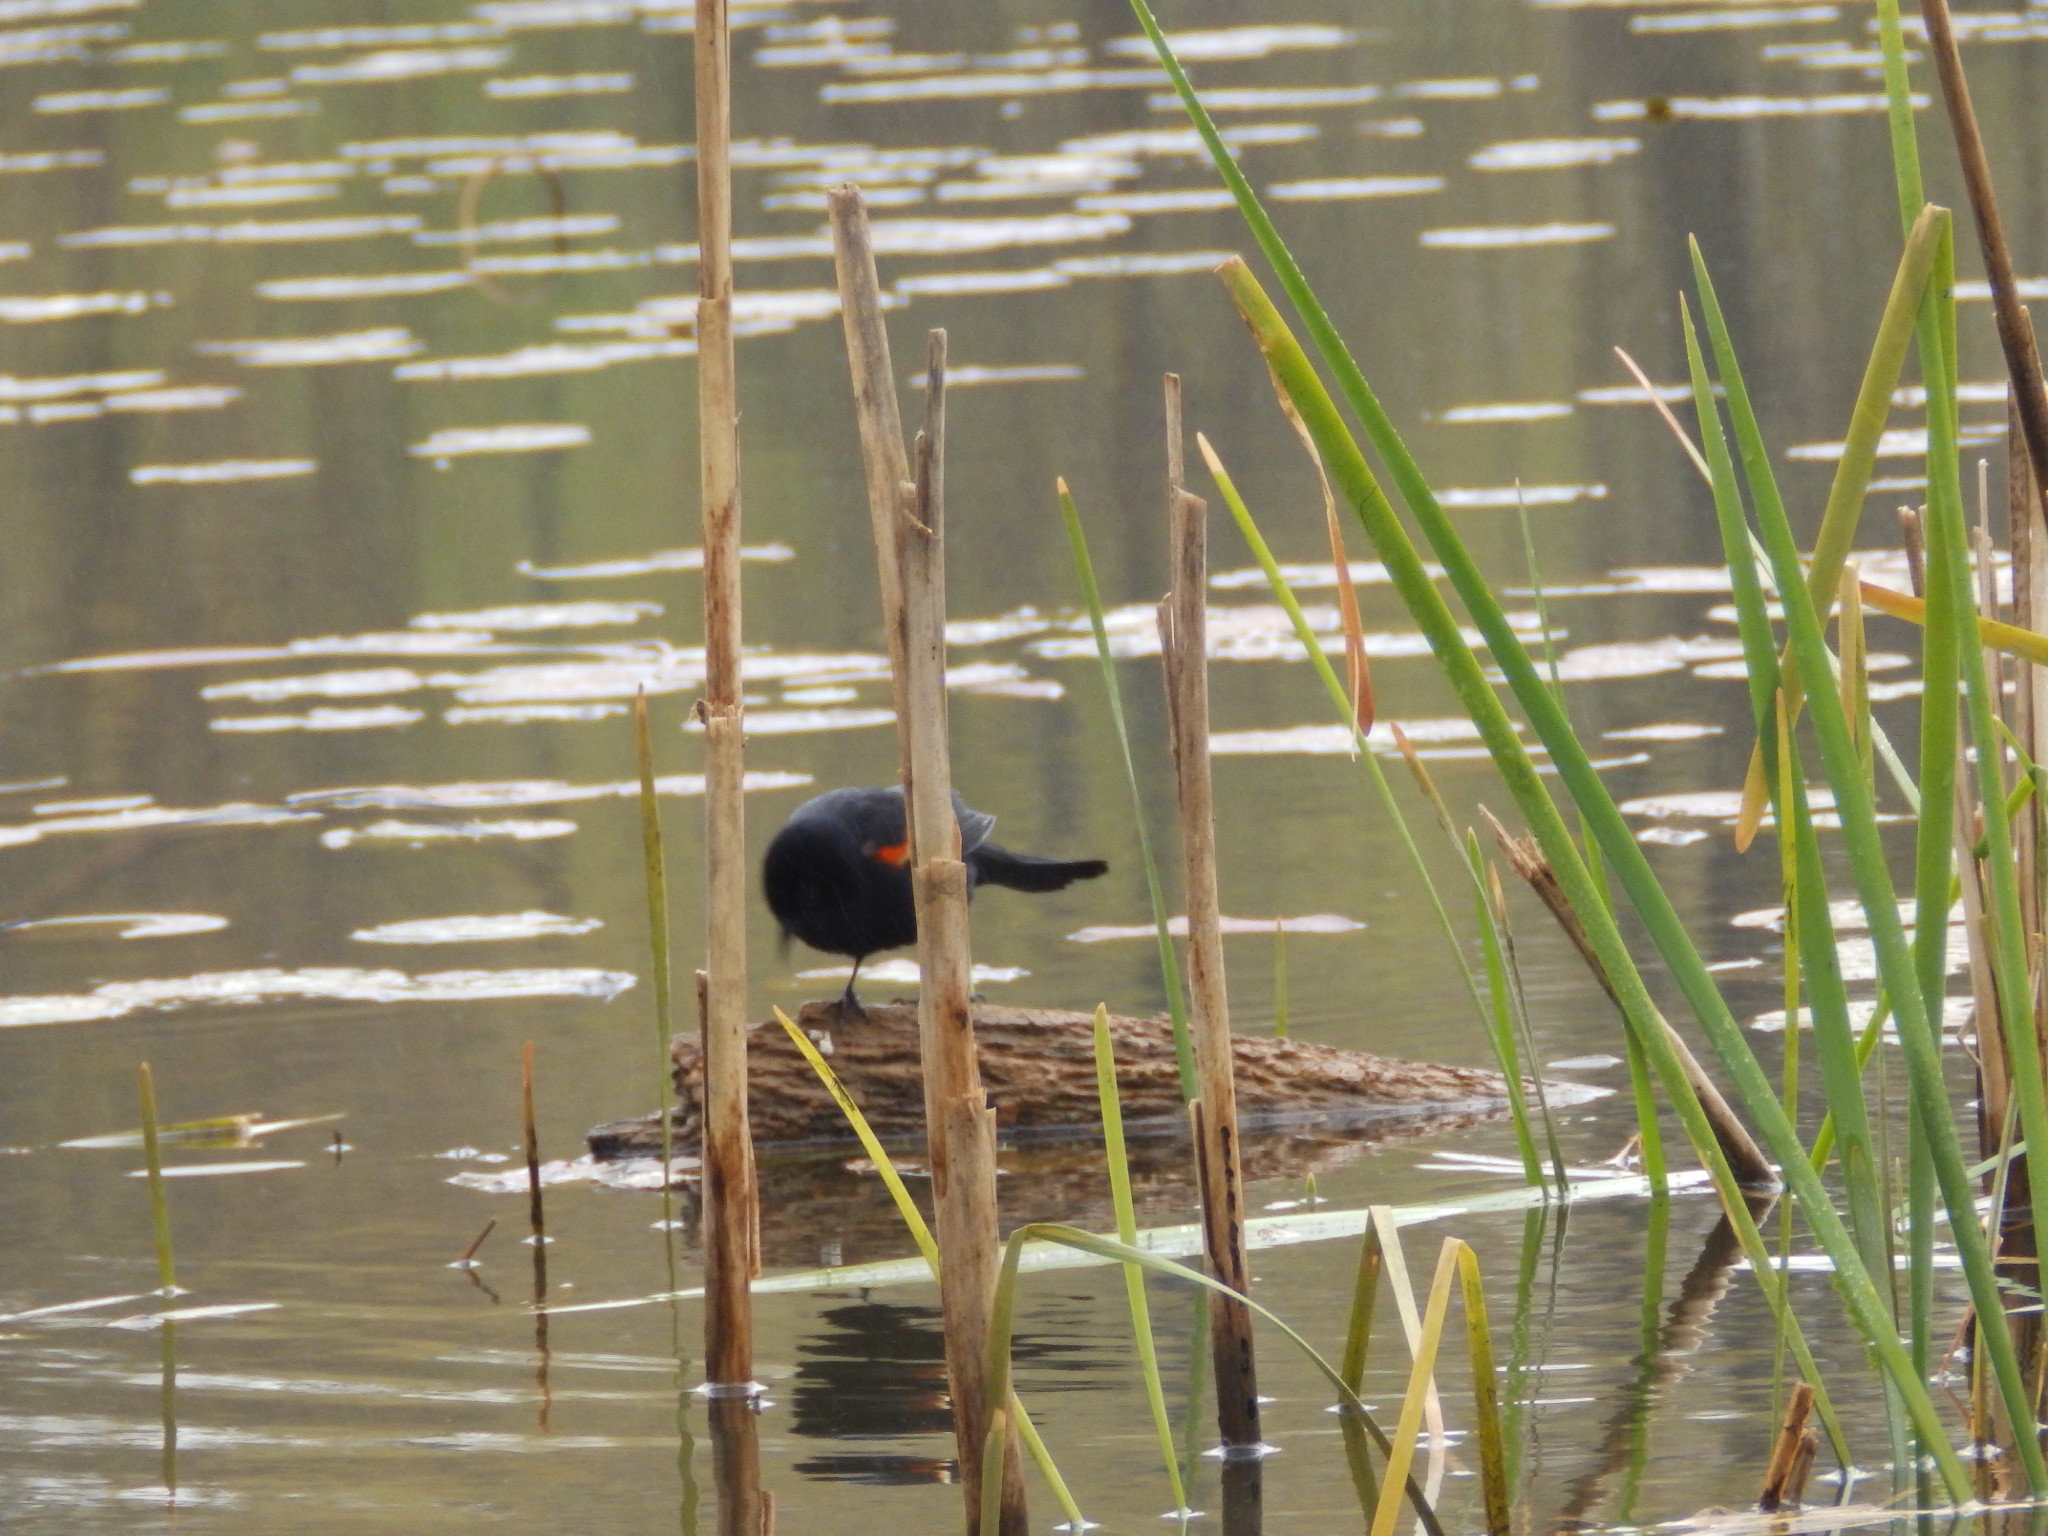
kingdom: Animalia
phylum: Chordata
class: Aves
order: Passeriformes
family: Icteridae
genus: Agelaius
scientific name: Agelaius phoeniceus
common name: Red-winged blackbird
